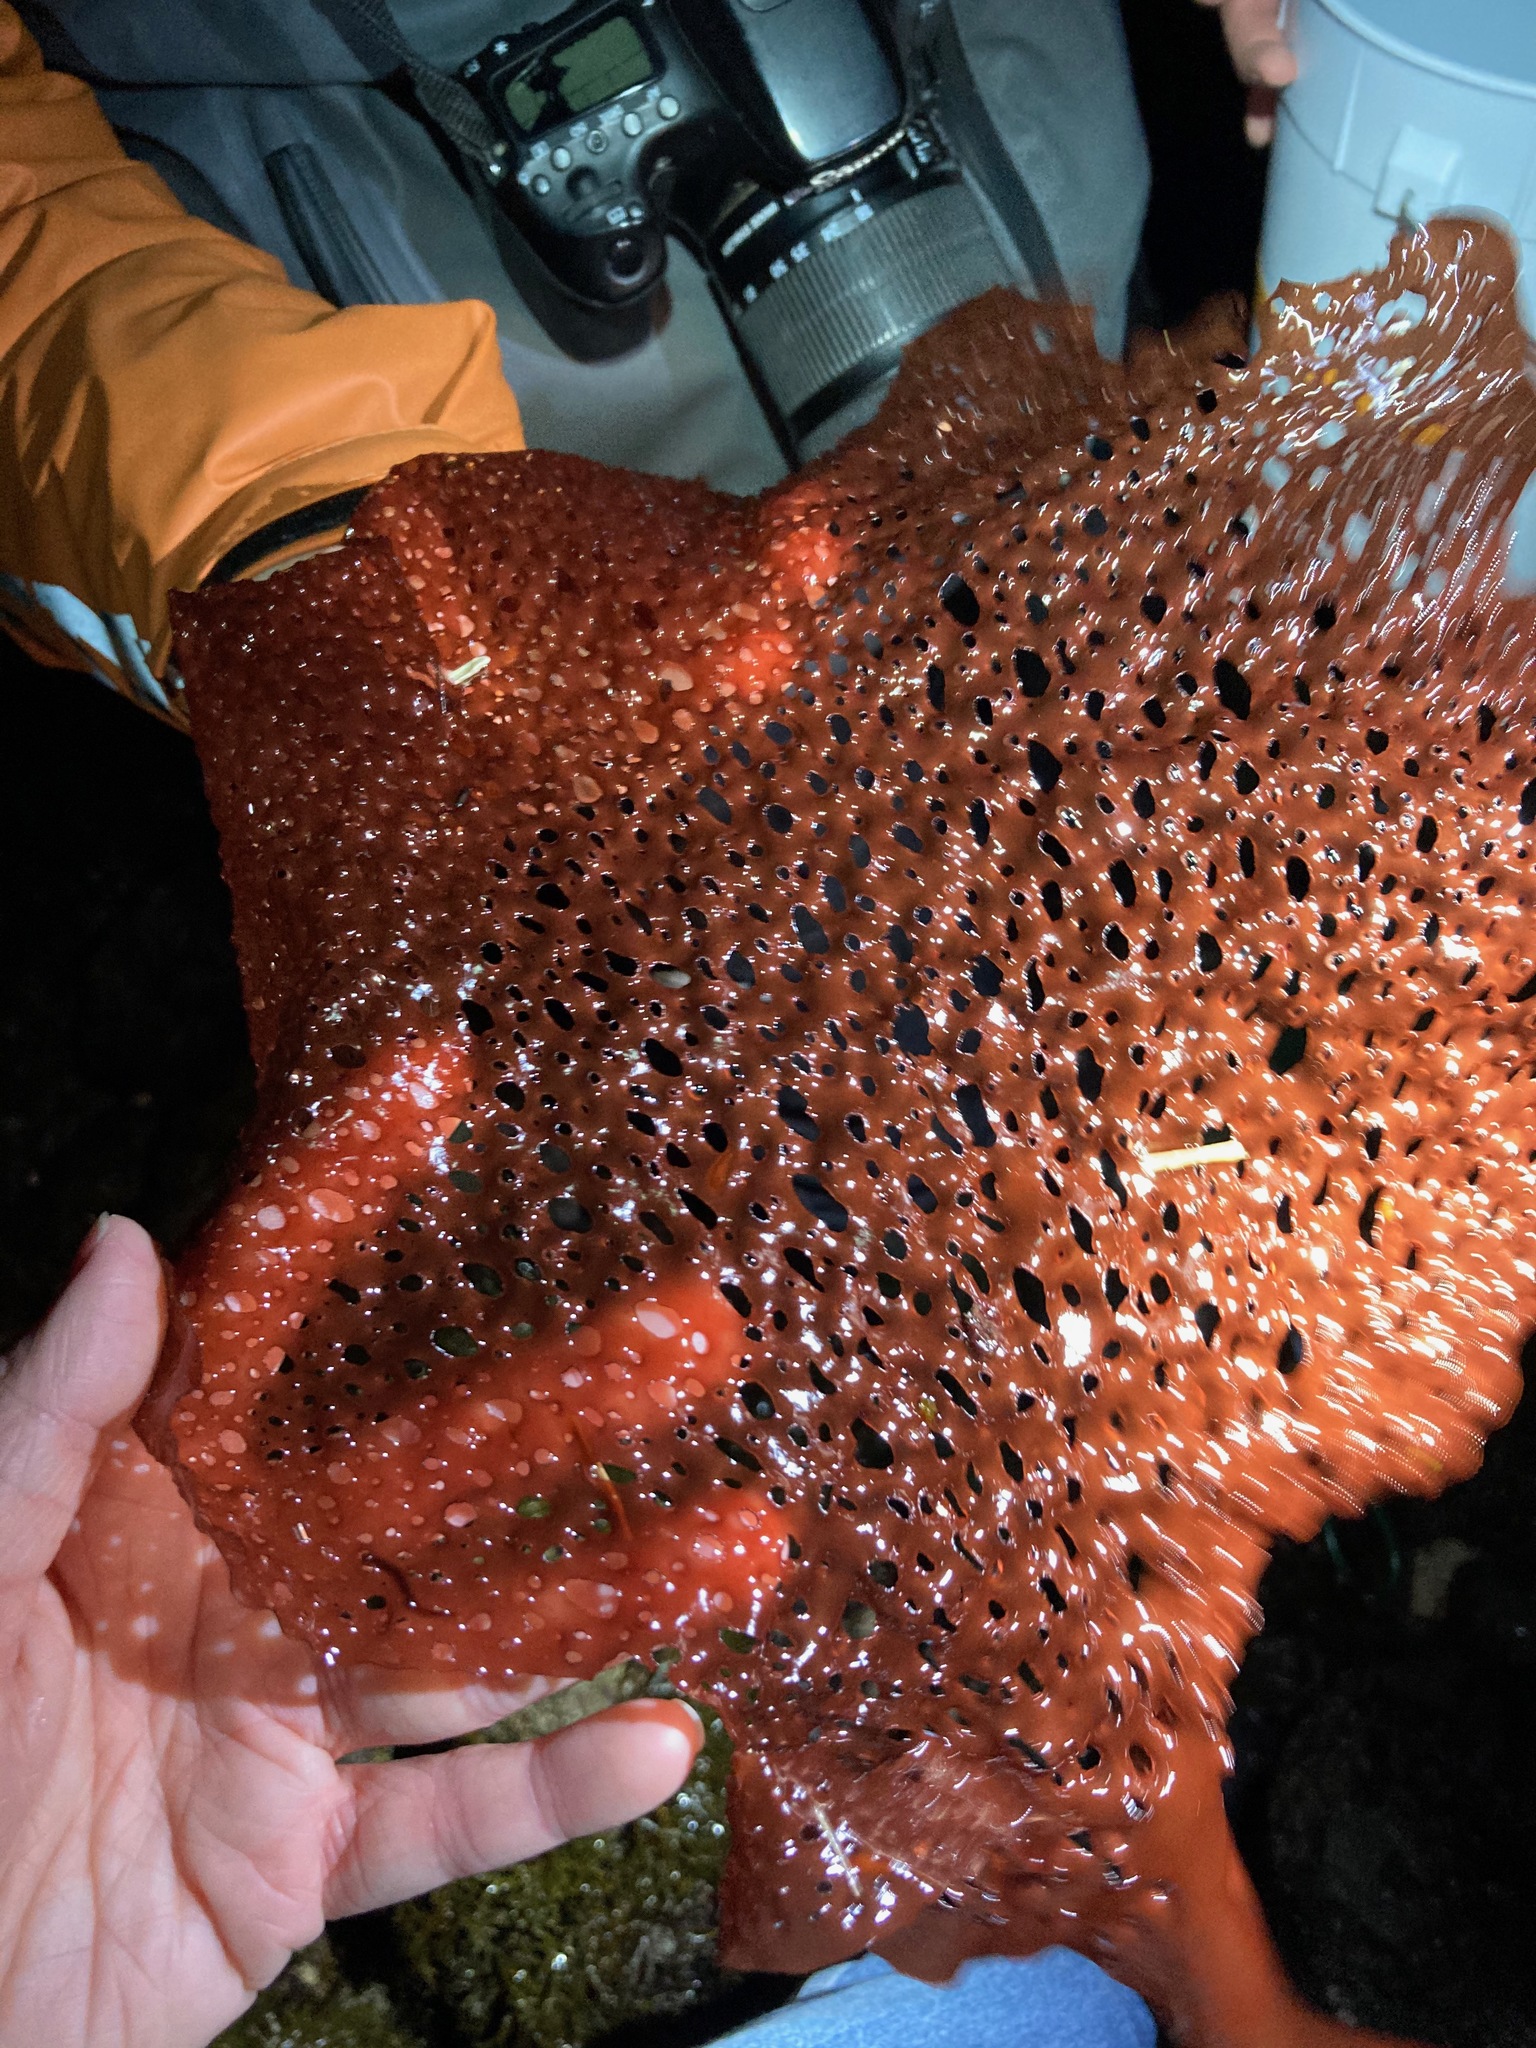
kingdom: Plantae
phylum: Rhodophyta
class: Florideophyceae
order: Rhodymeniales
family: Rhodymeniaceae
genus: Sparlingia
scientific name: Sparlingia pertusa
